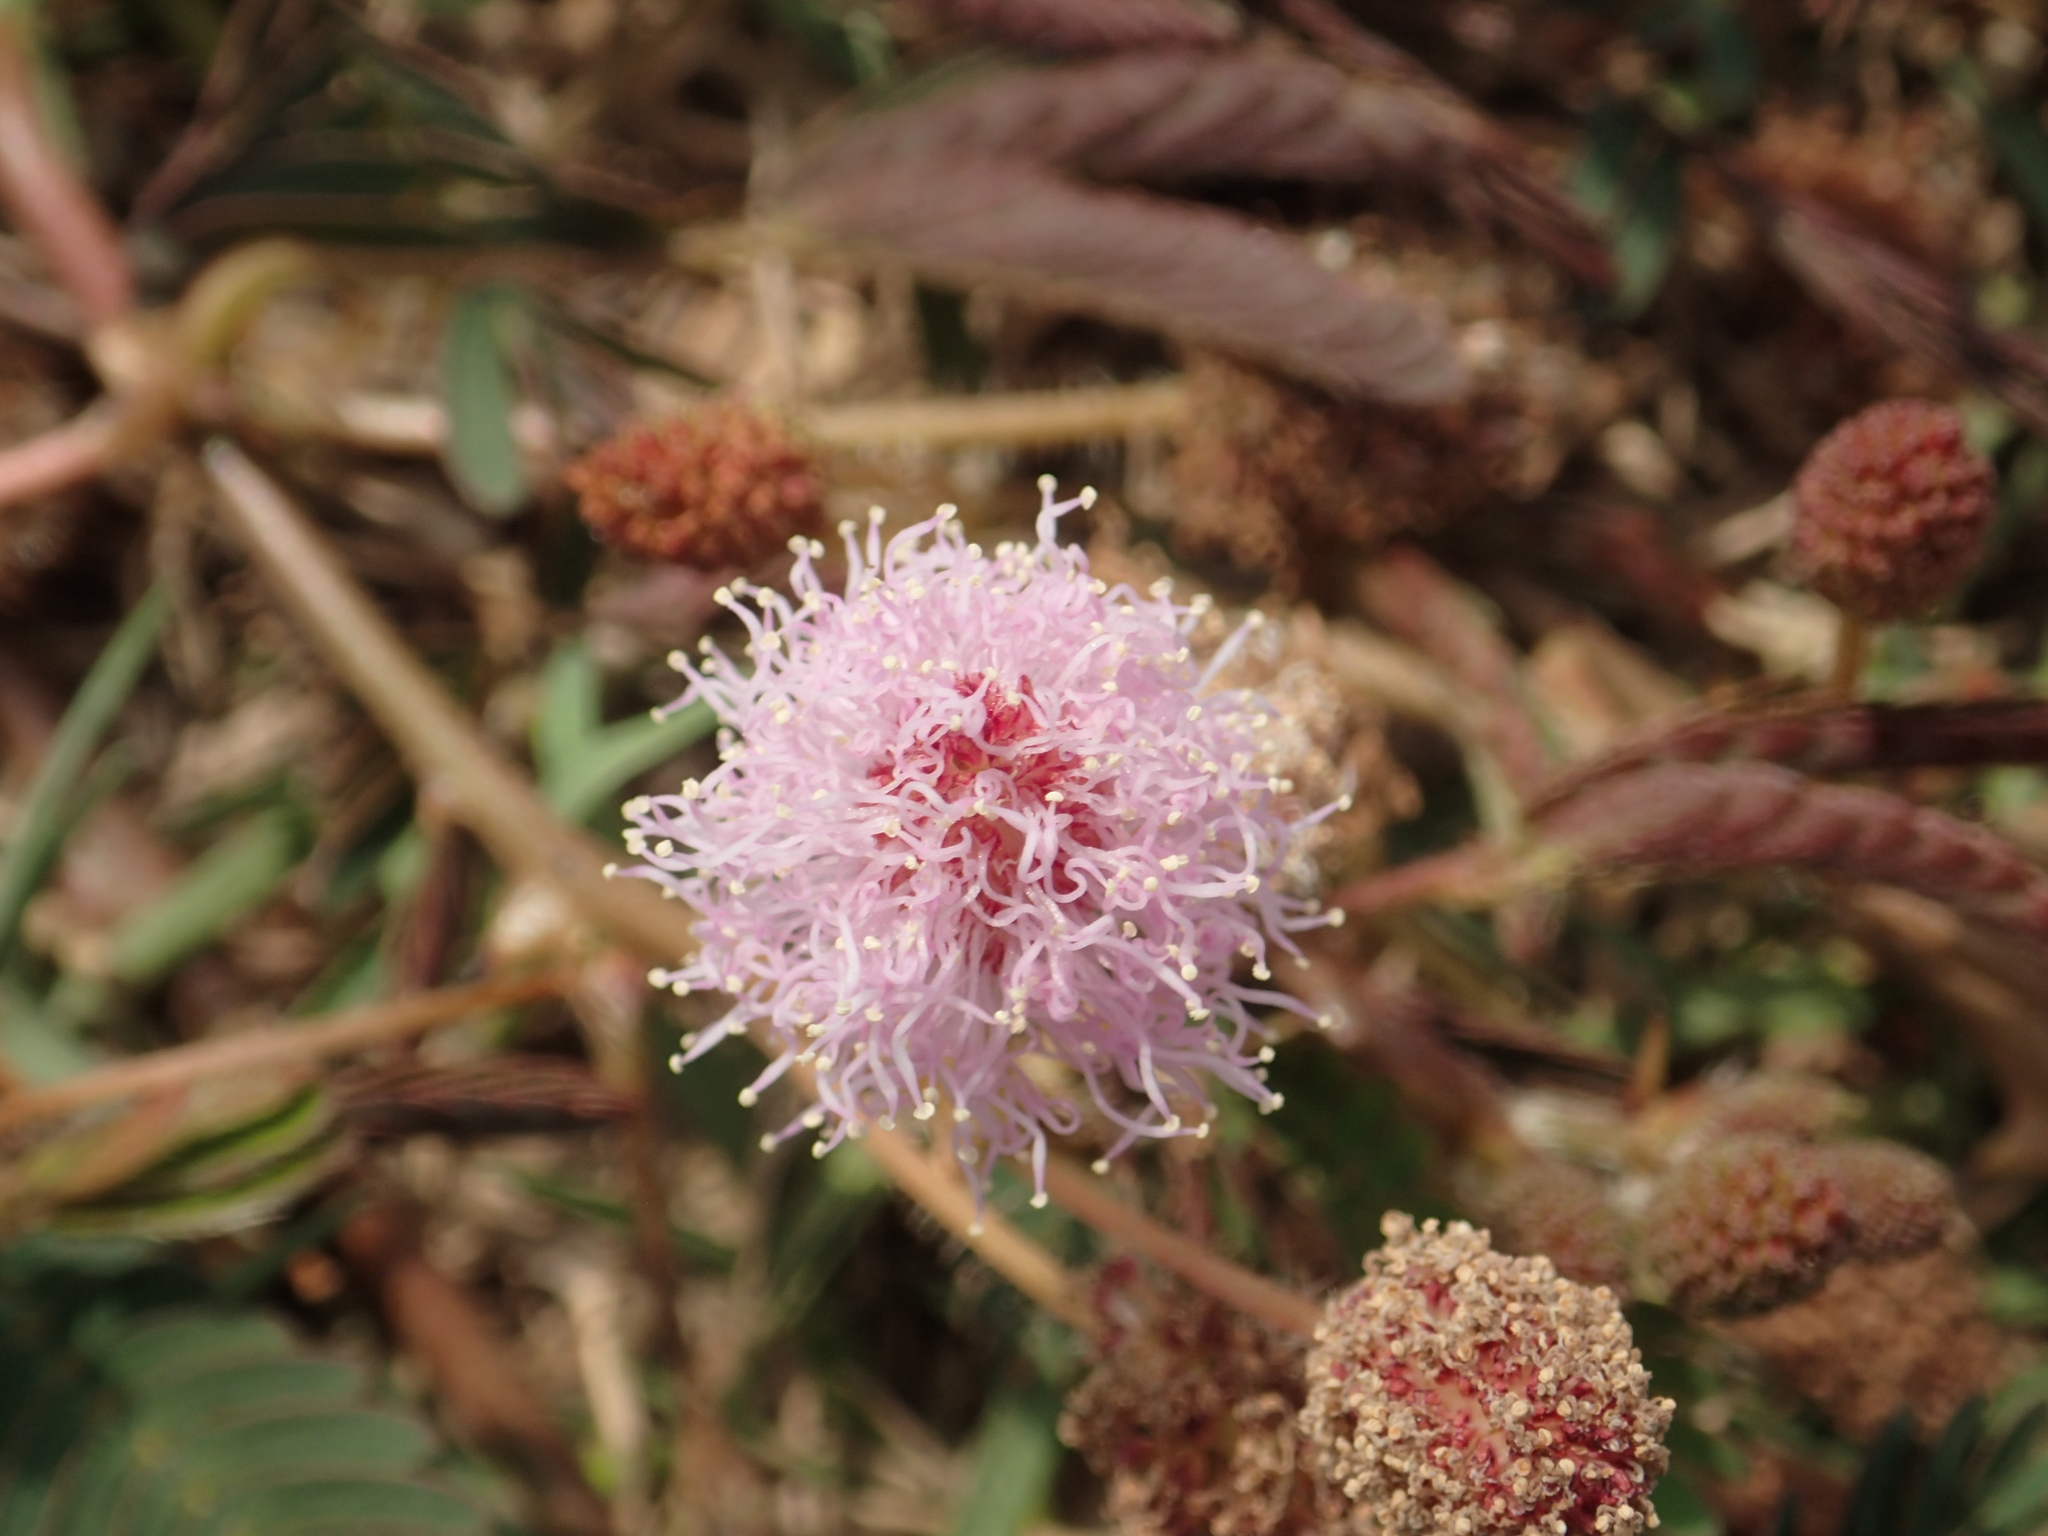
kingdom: Plantae
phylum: Tracheophyta
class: Magnoliopsida
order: Fabales
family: Fabaceae
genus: Mimosa
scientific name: Mimosa pudica
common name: Sensitive plant
